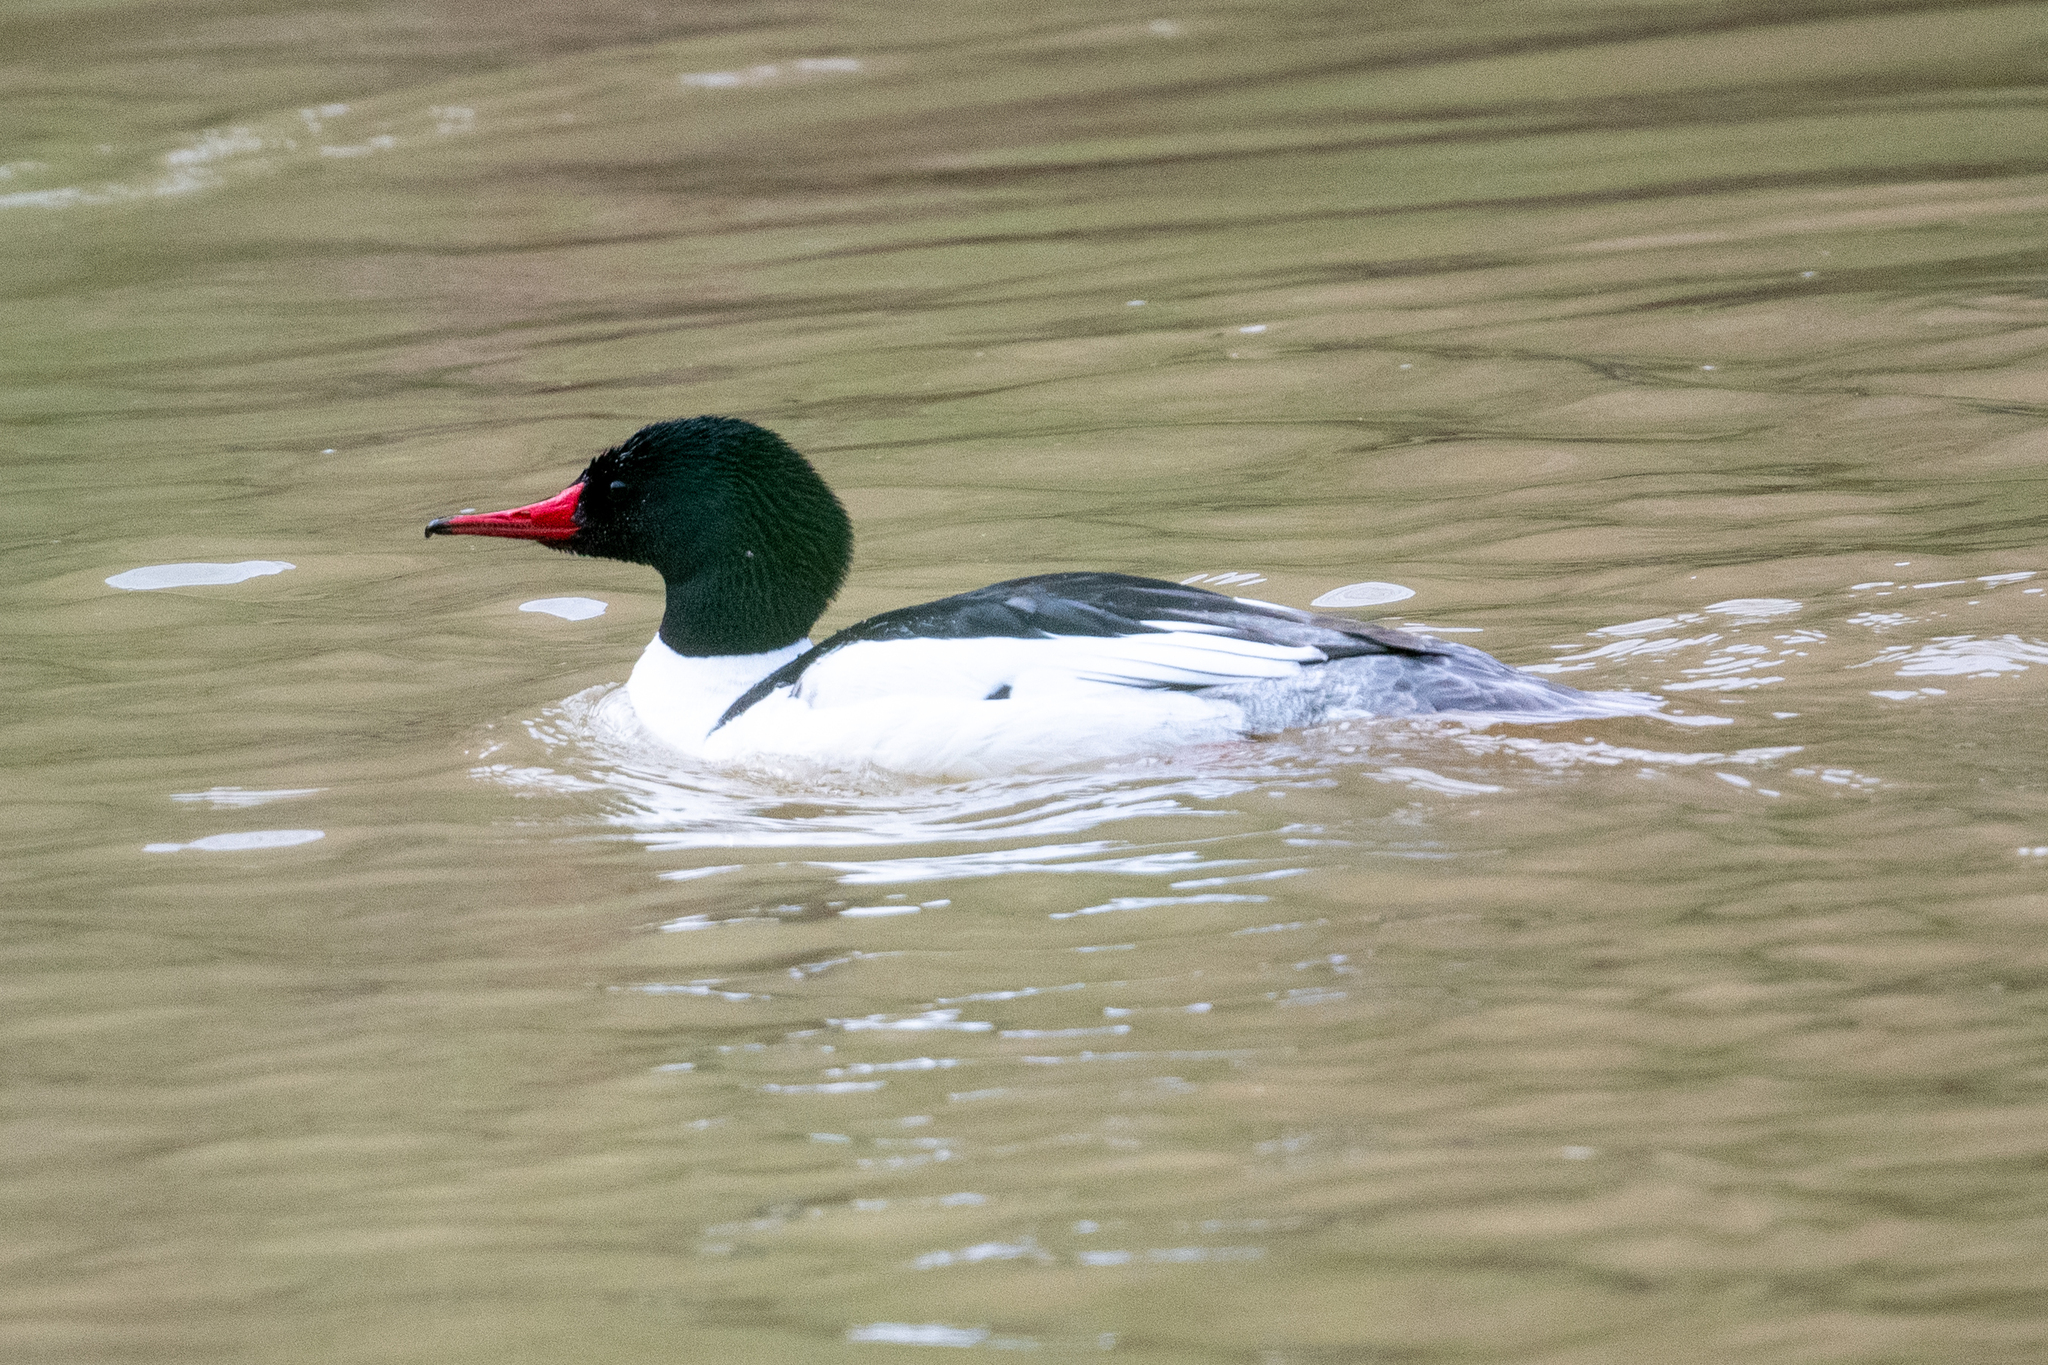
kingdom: Animalia
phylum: Chordata
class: Aves
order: Anseriformes
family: Anatidae
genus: Mergus
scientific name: Mergus merganser
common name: Common merganser
